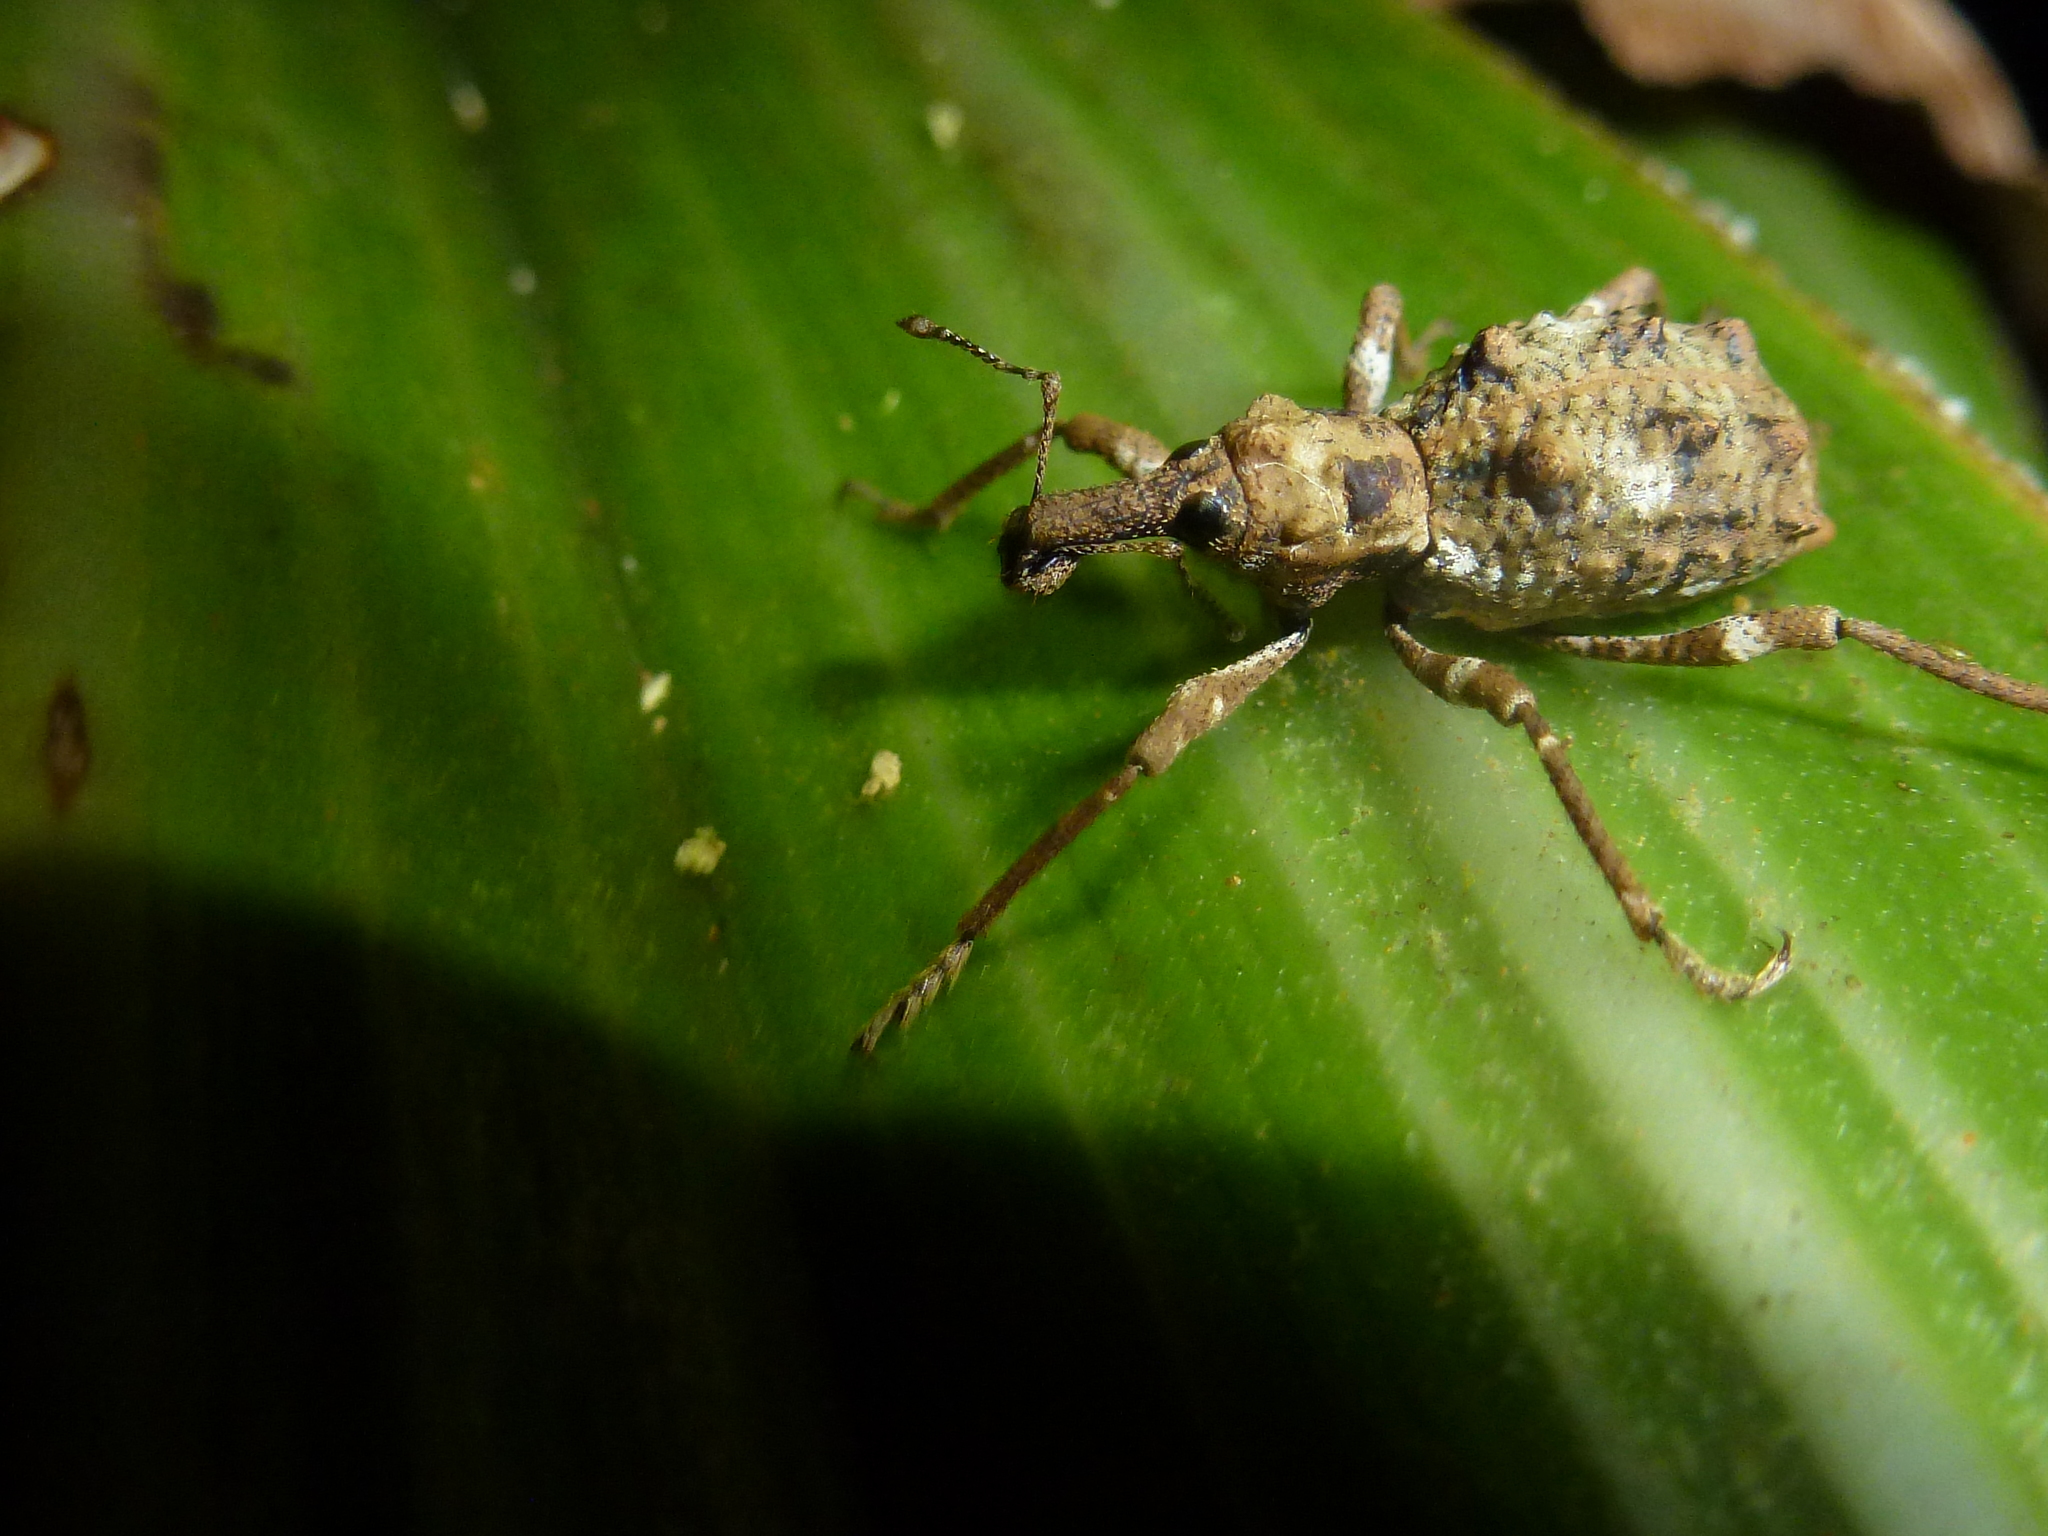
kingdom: Animalia
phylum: Arthropoda
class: Insecta
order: Coleoptera
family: Curculionidae
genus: Anagotus
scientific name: Anagotus helmsi
